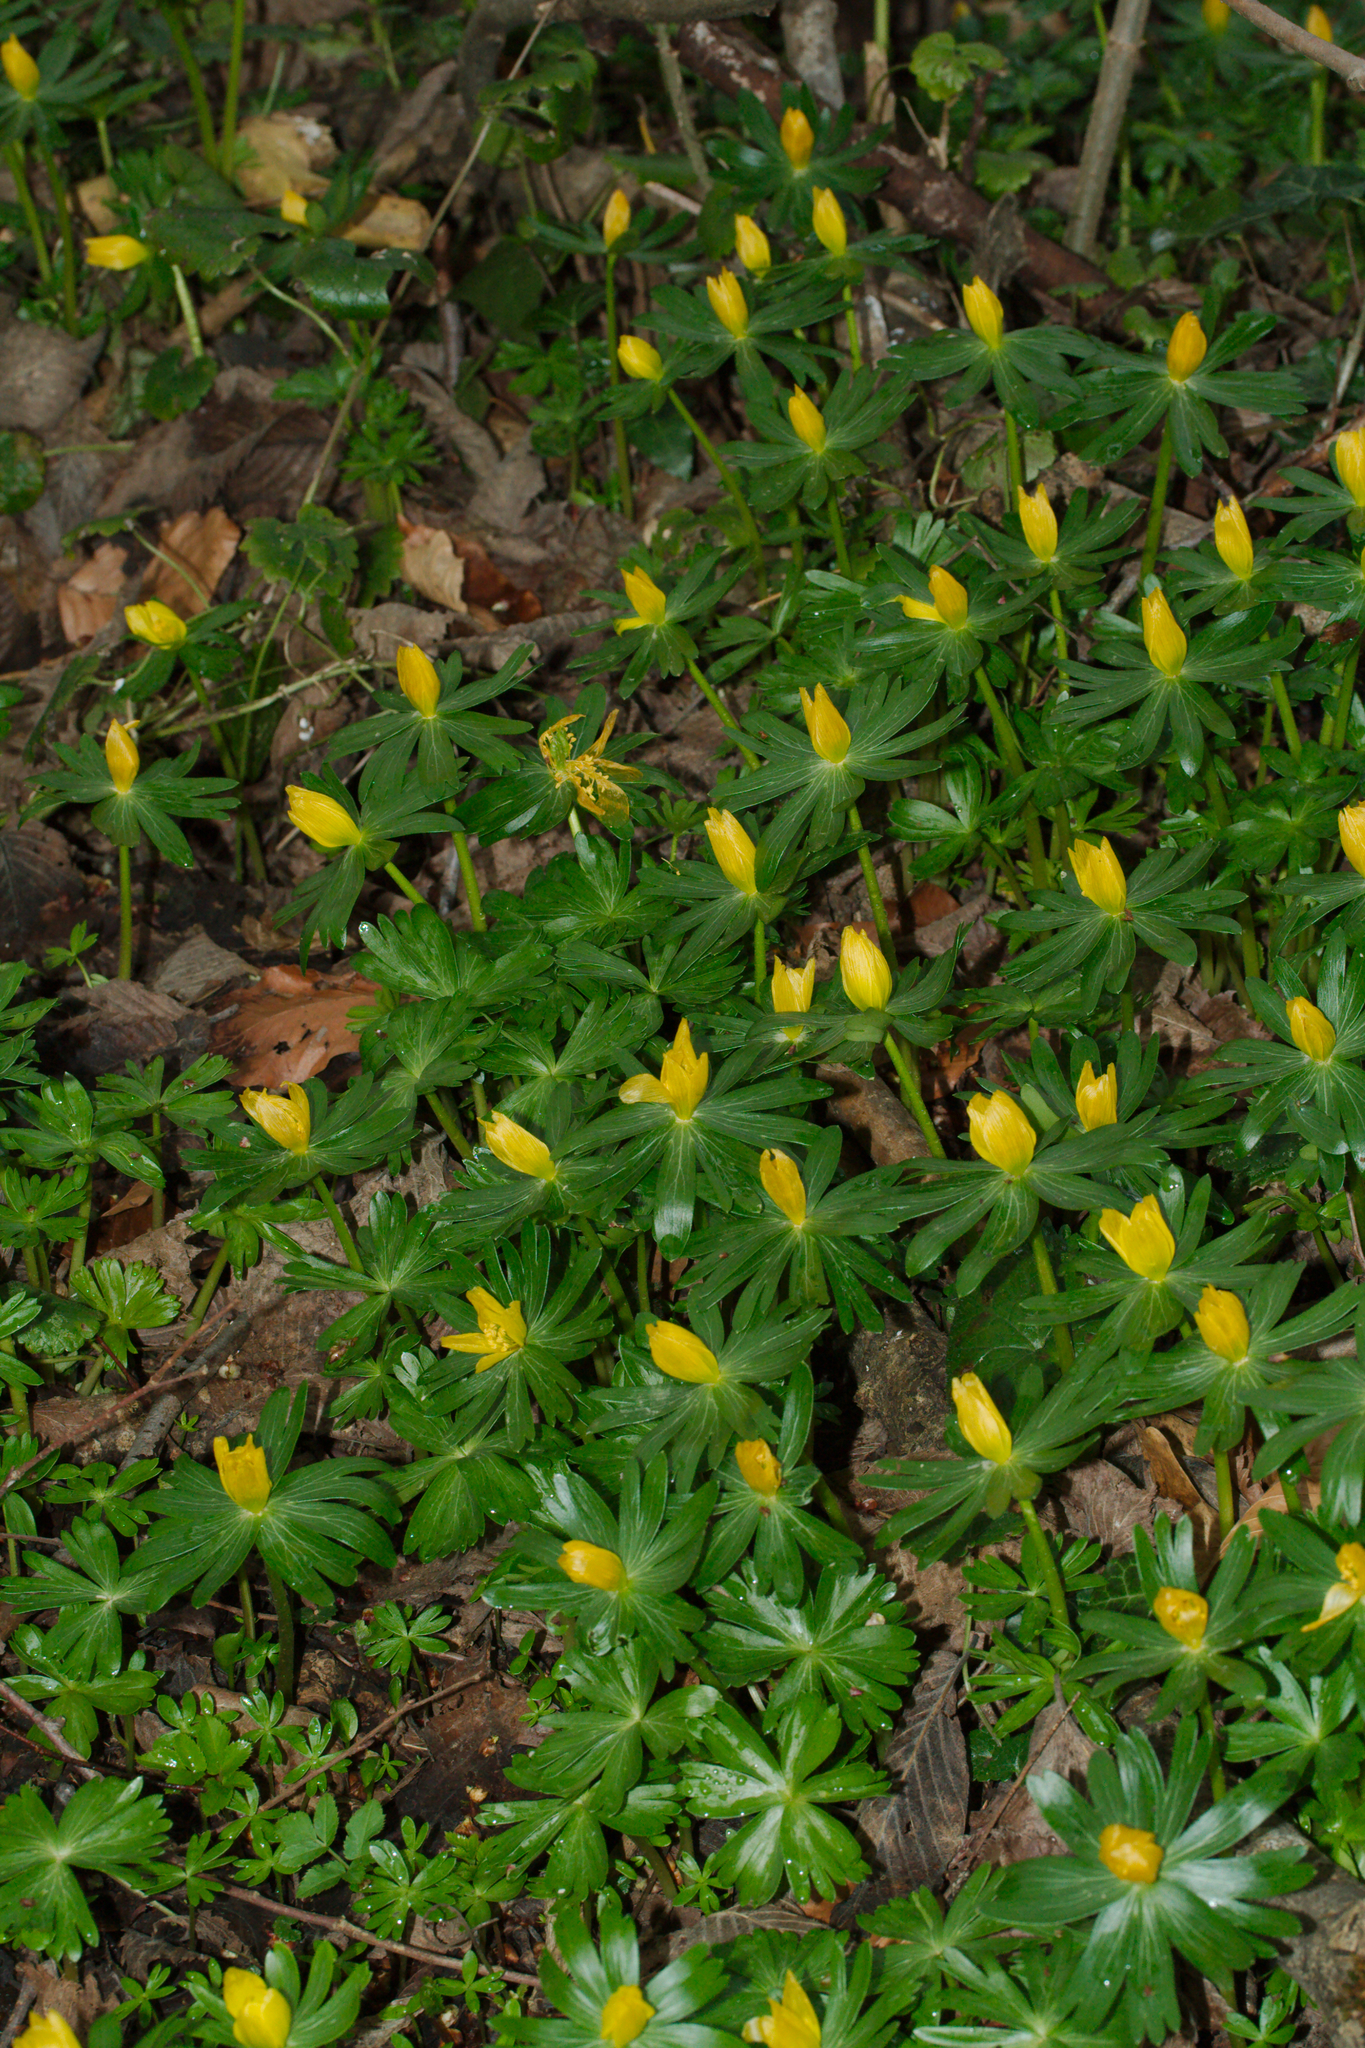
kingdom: Plantae
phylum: Tracheophyta
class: Magnoliopsida
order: Ranunculales
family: Ranunculaceae
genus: Eranthis
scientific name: Eranthis hyemalis
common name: Winter aconite
